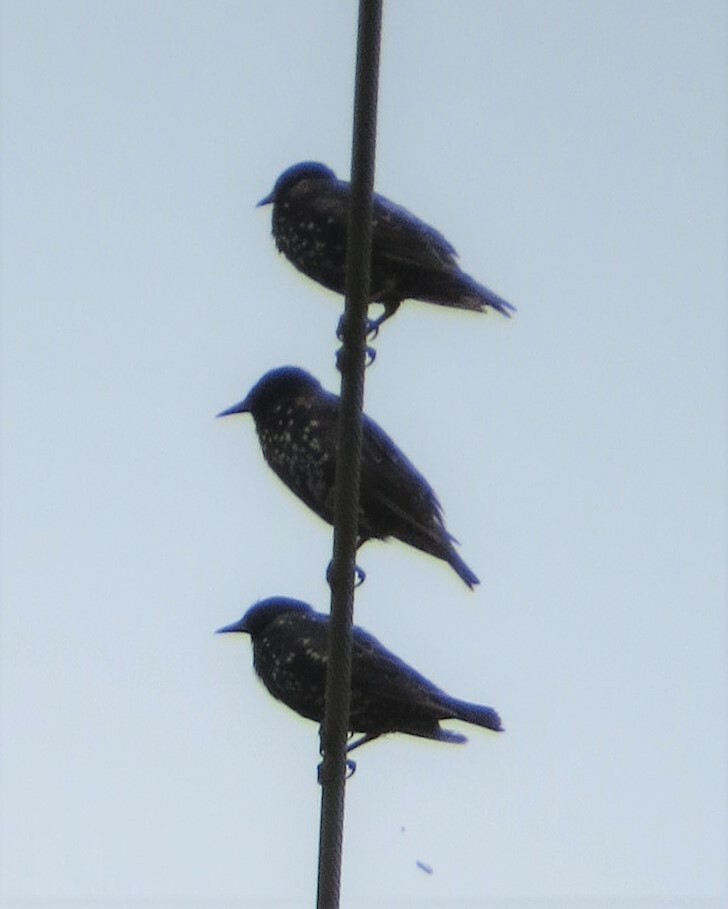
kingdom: Animalia
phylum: Chordata
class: Aves
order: Passeriformes
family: Sturnidae
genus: Sturnus
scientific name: Sturnus vulgaris
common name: Common starling
